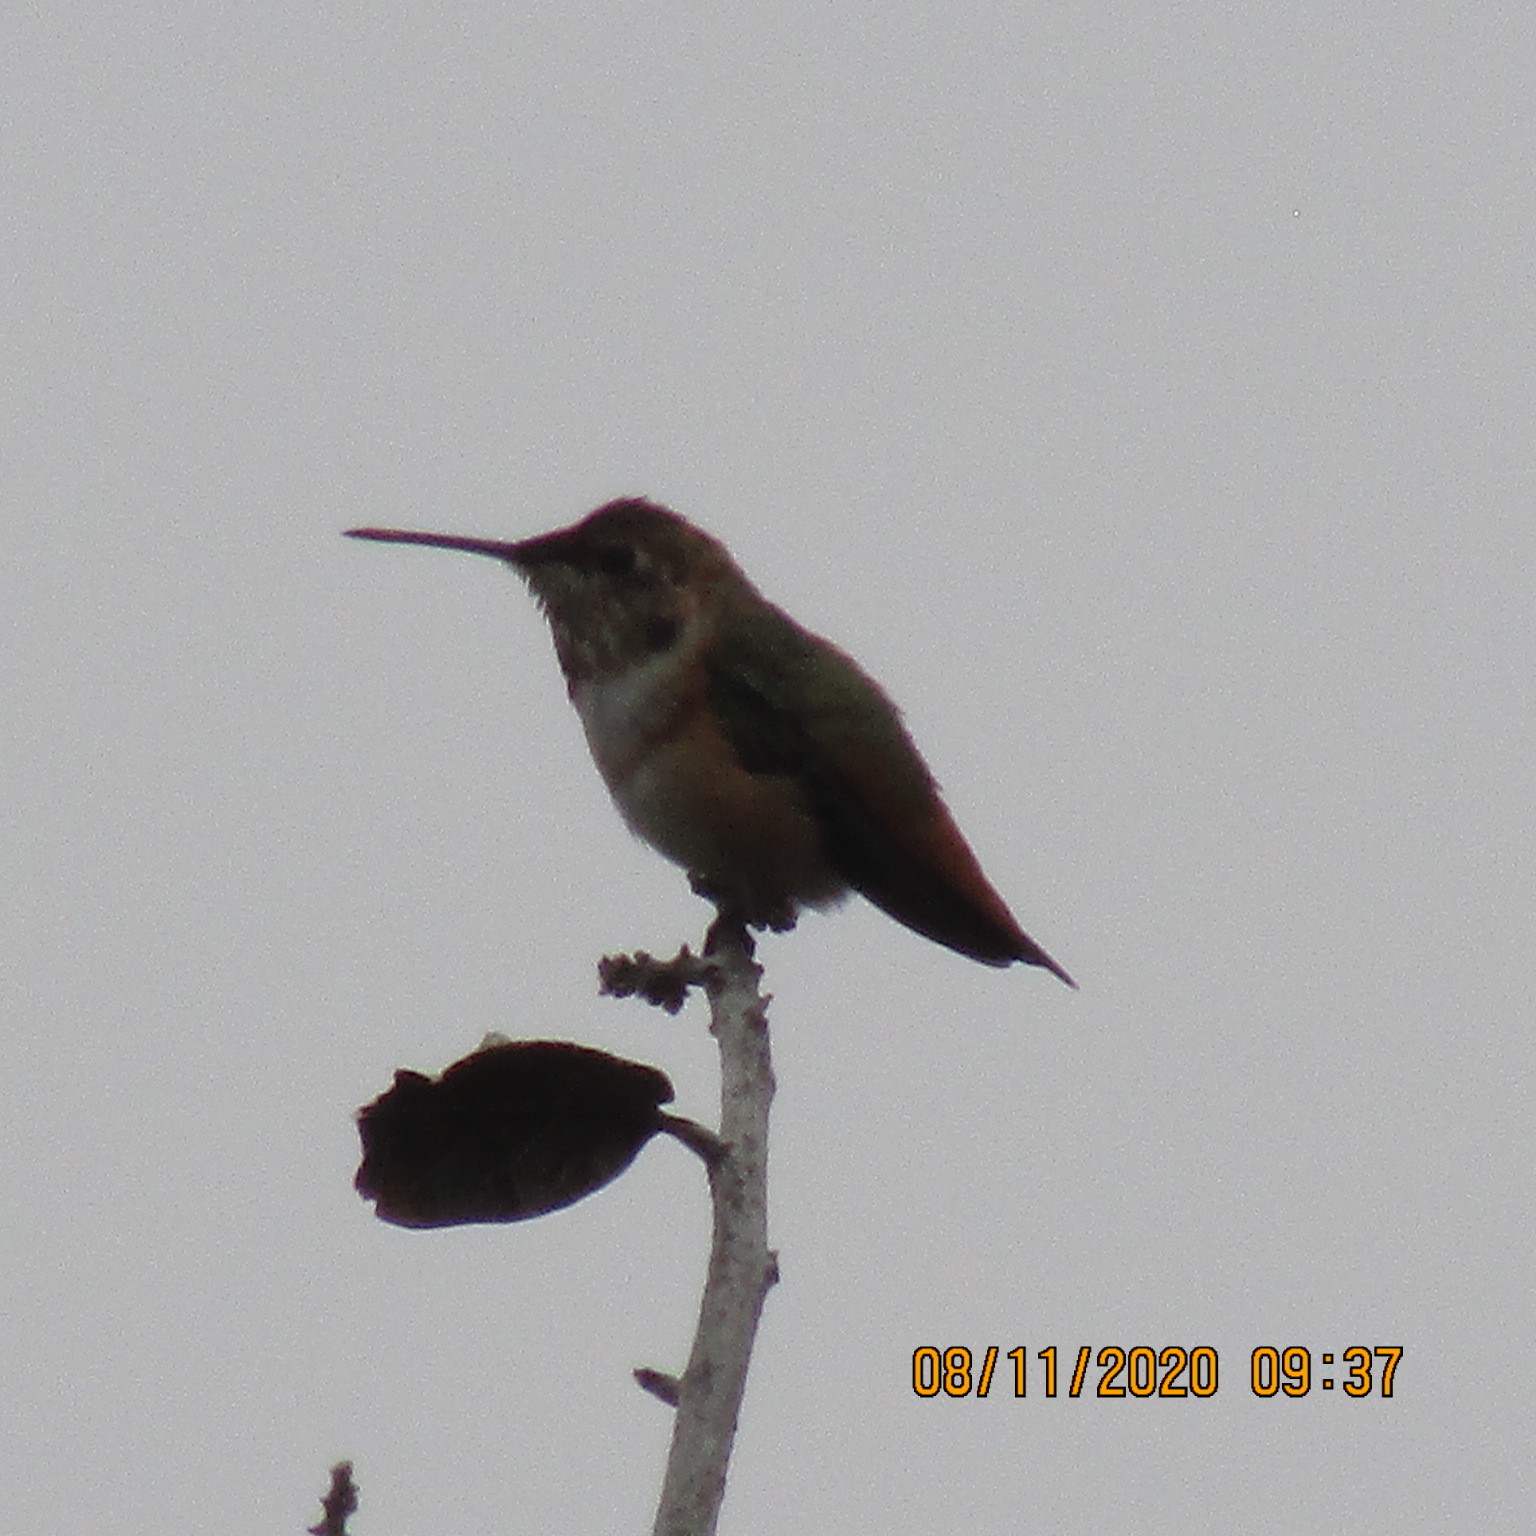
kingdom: Animalia
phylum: Chordata
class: Aves
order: Apodiformes
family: Trochilidae
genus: Selasphorus
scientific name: Selasphorus
